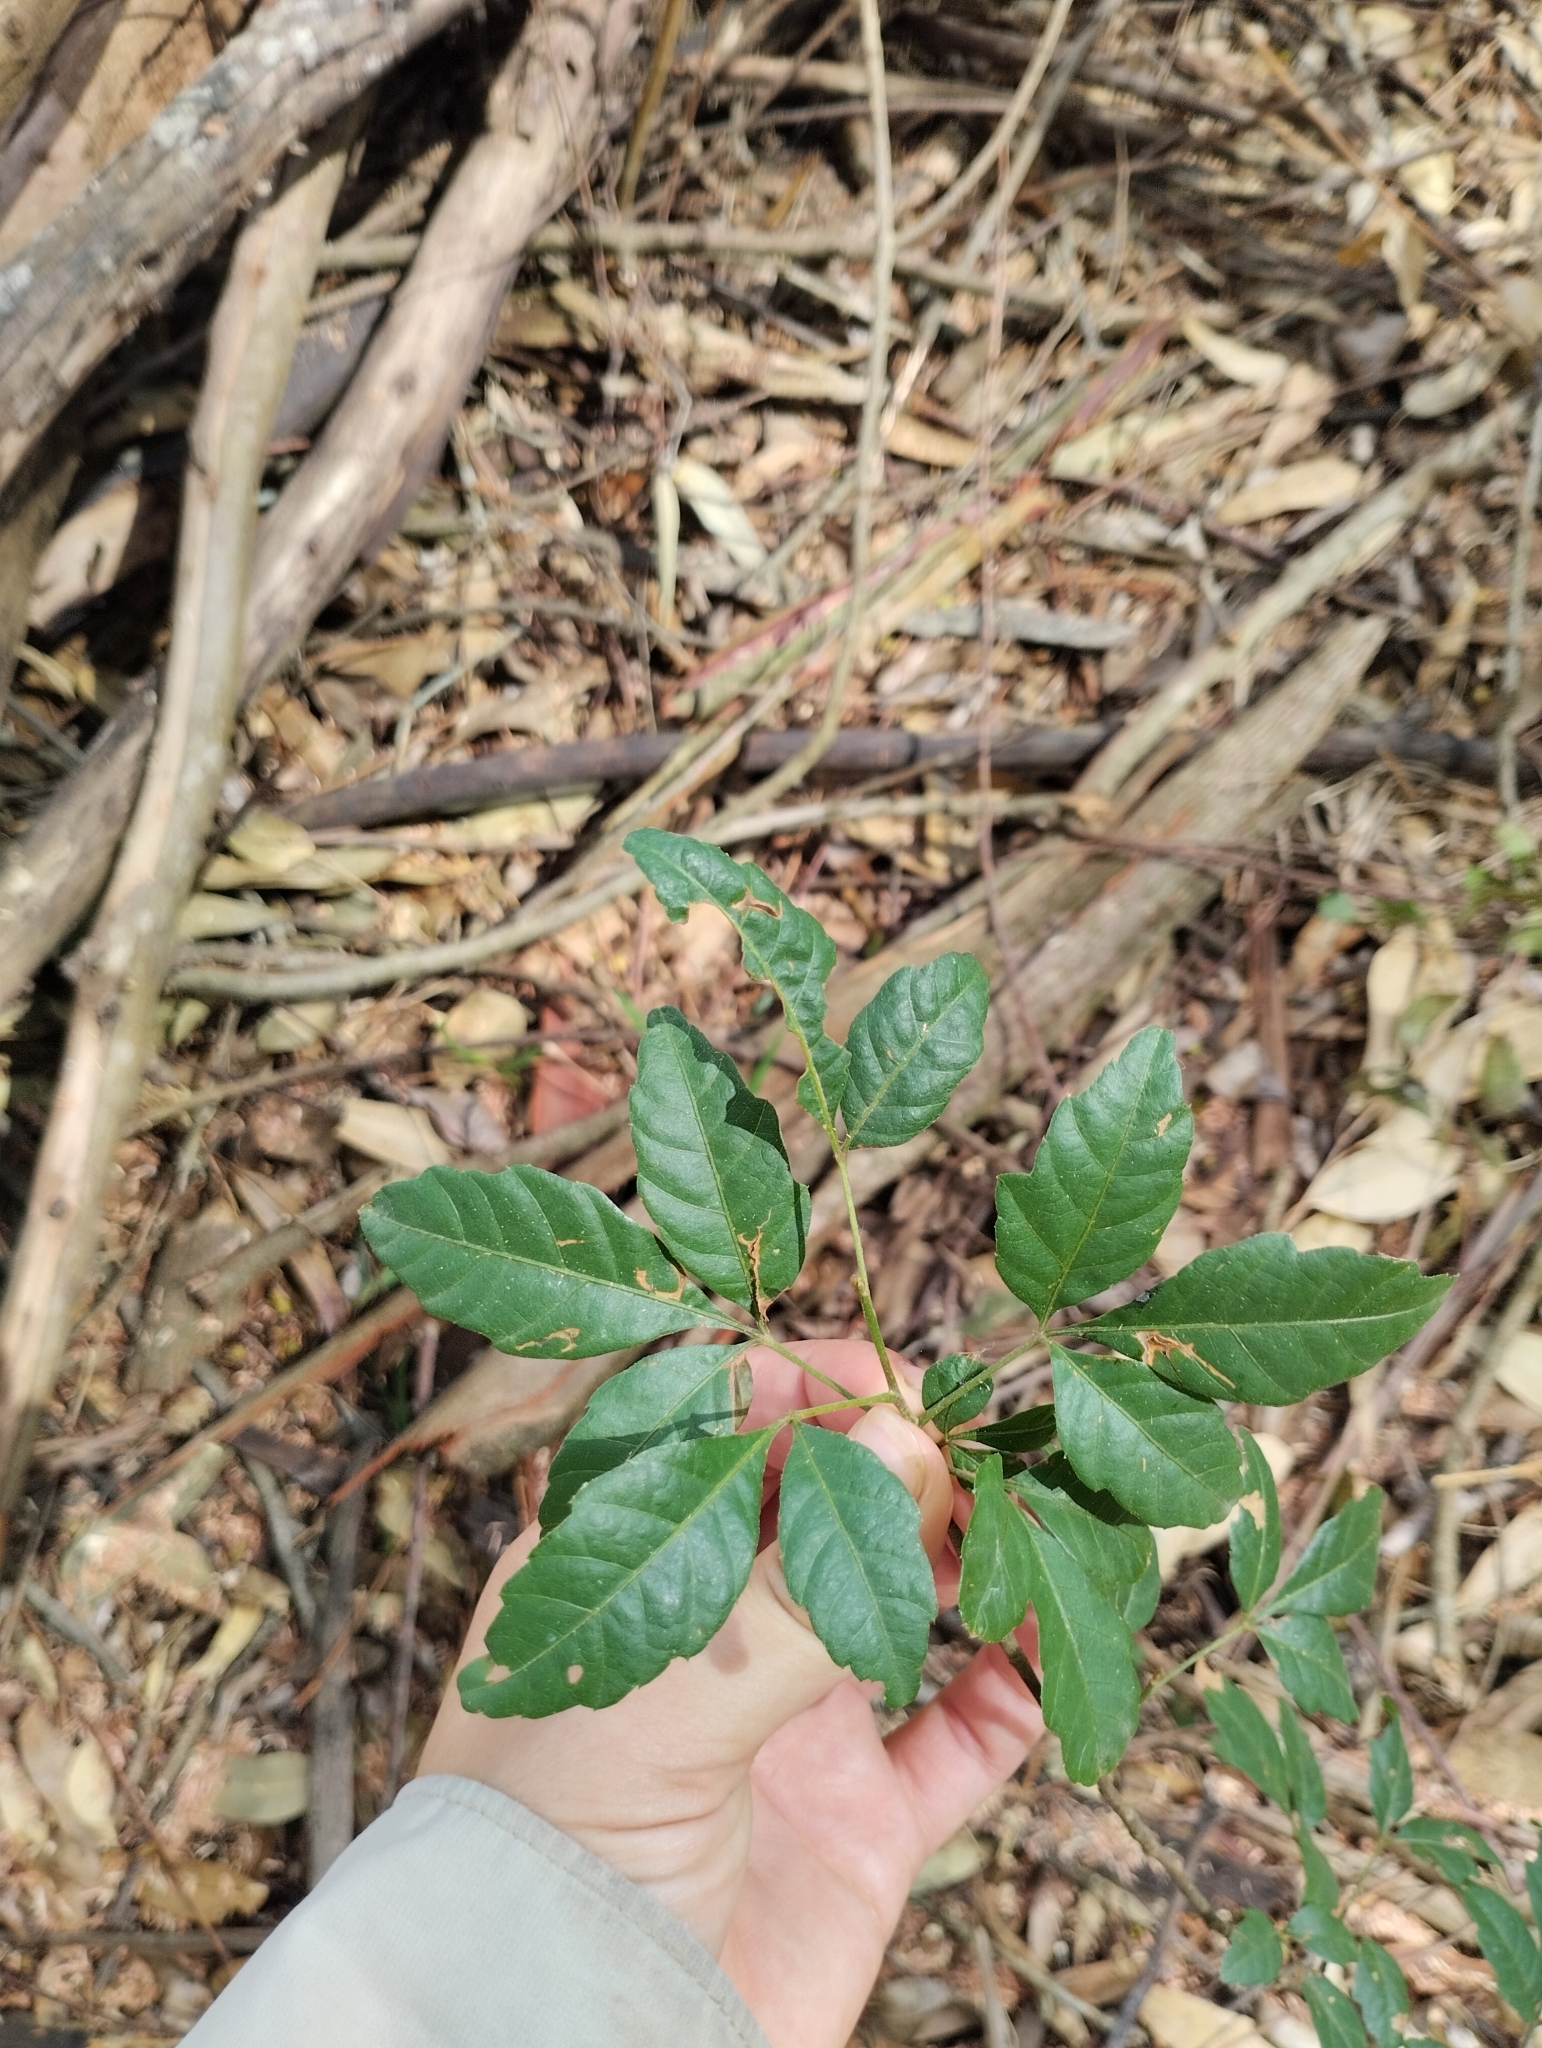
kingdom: Plantae
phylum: Tracheophyta
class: Magnoliopsida
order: Sapindales
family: Sapindaceae
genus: Allophylus
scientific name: Allophylus edulis
